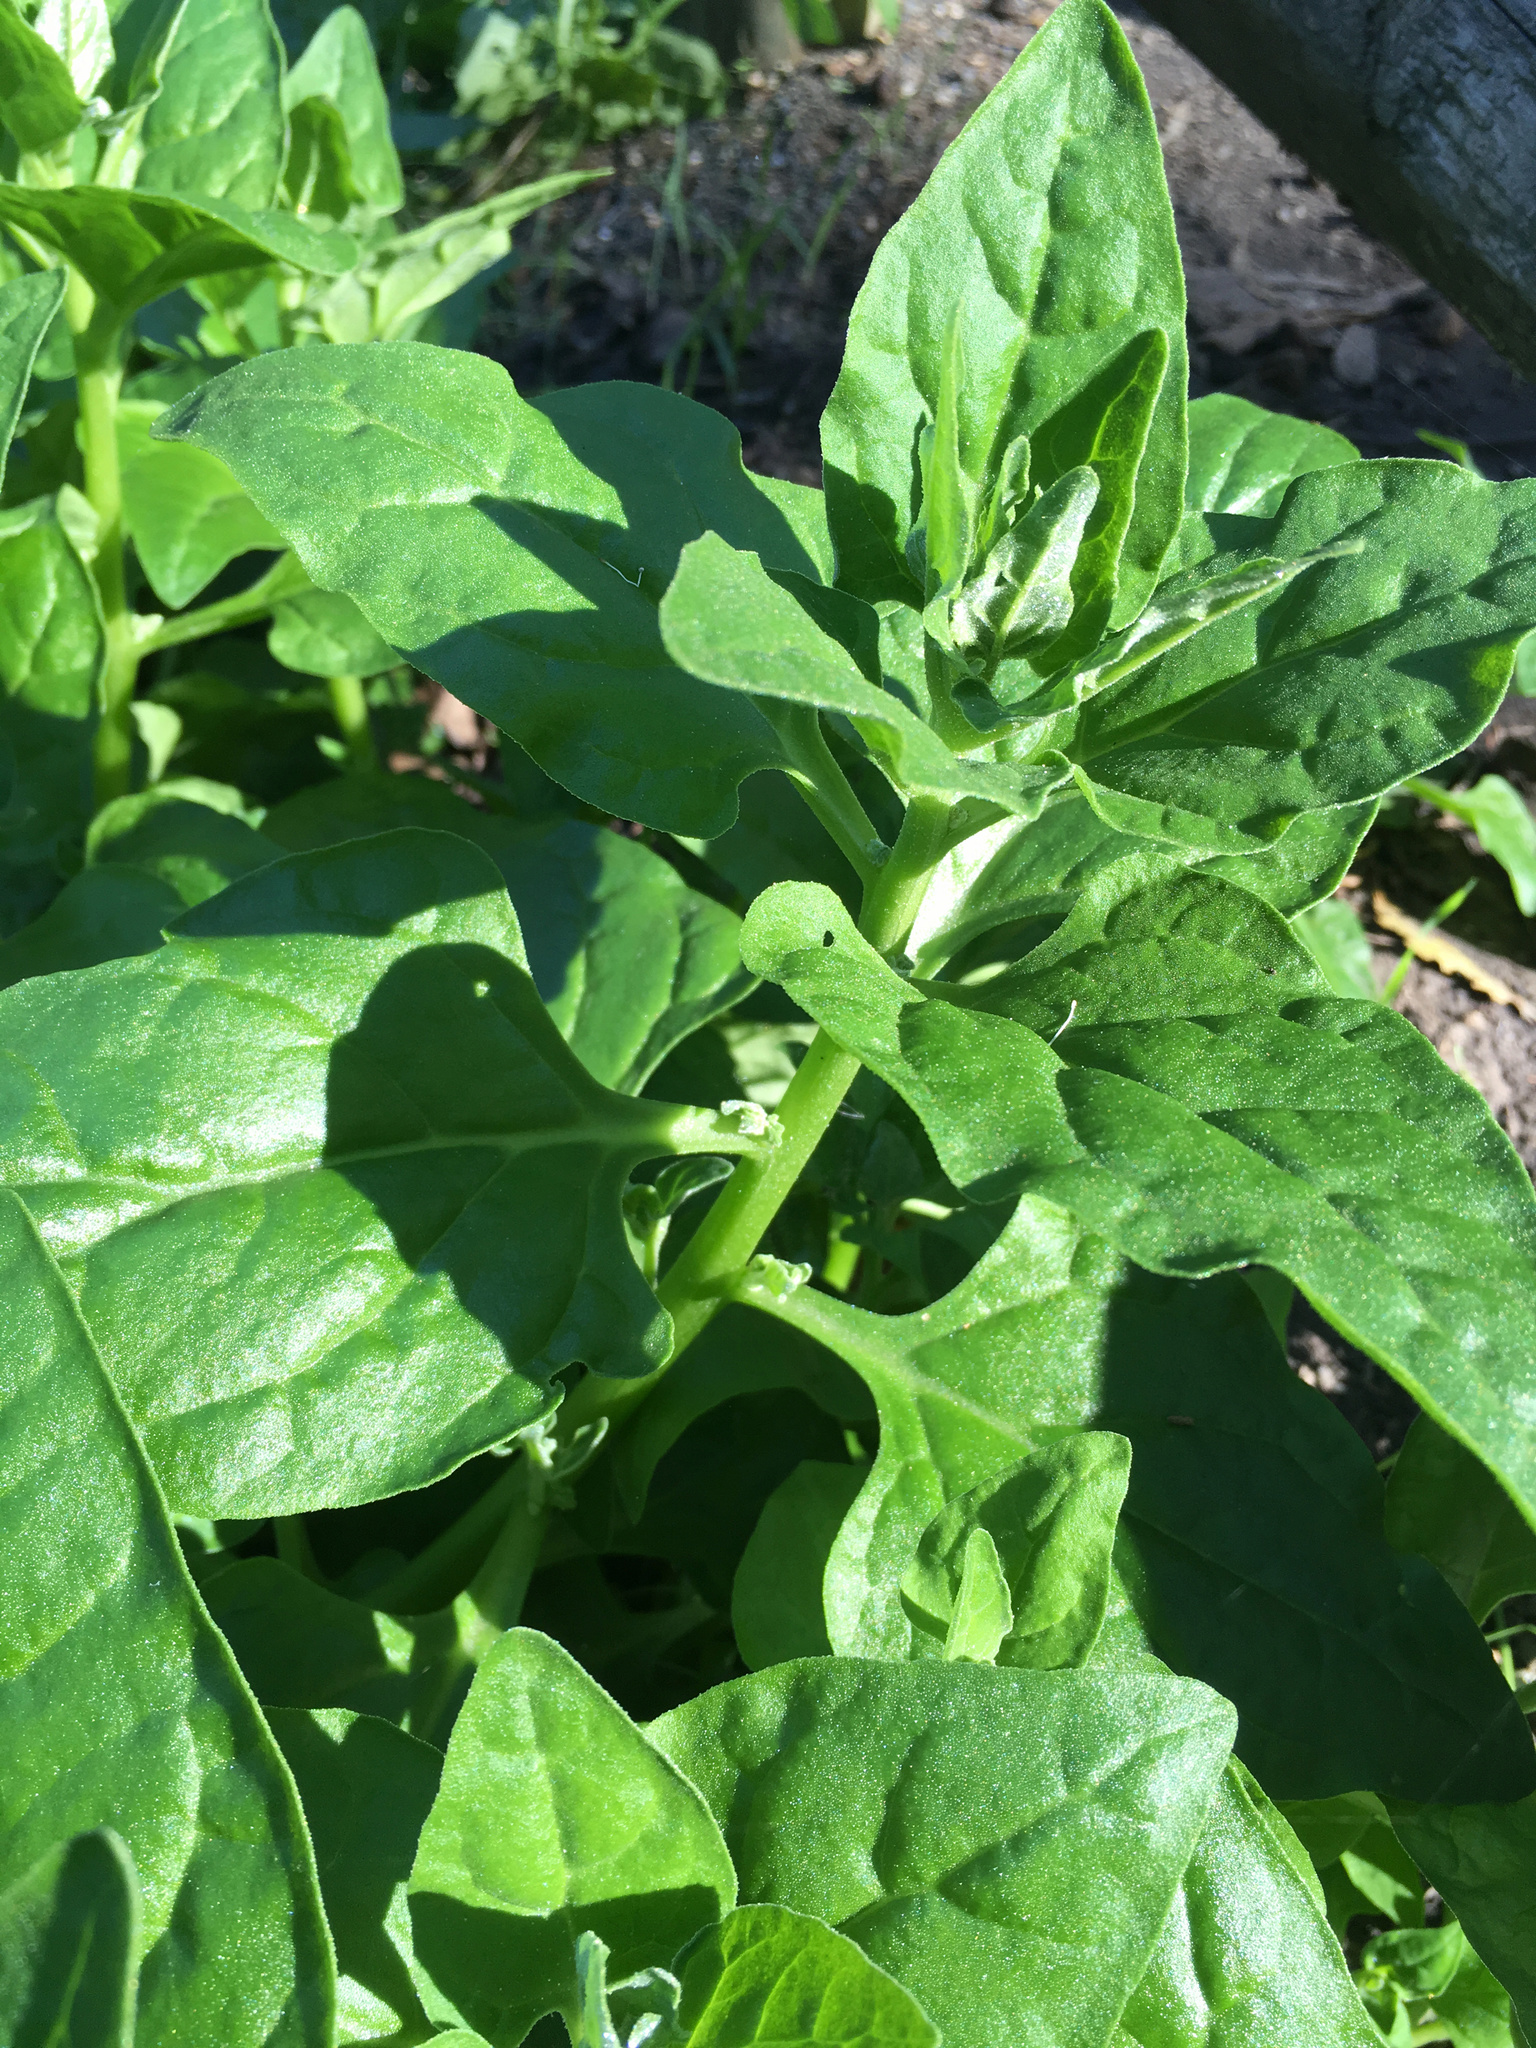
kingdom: Plantae
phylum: Tracheophyta
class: Magnoliopsida
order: Caryophyllales
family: Aizoaceae
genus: Tetragonia
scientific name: Tetragonia tetragonoides
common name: New zealand-spinach
